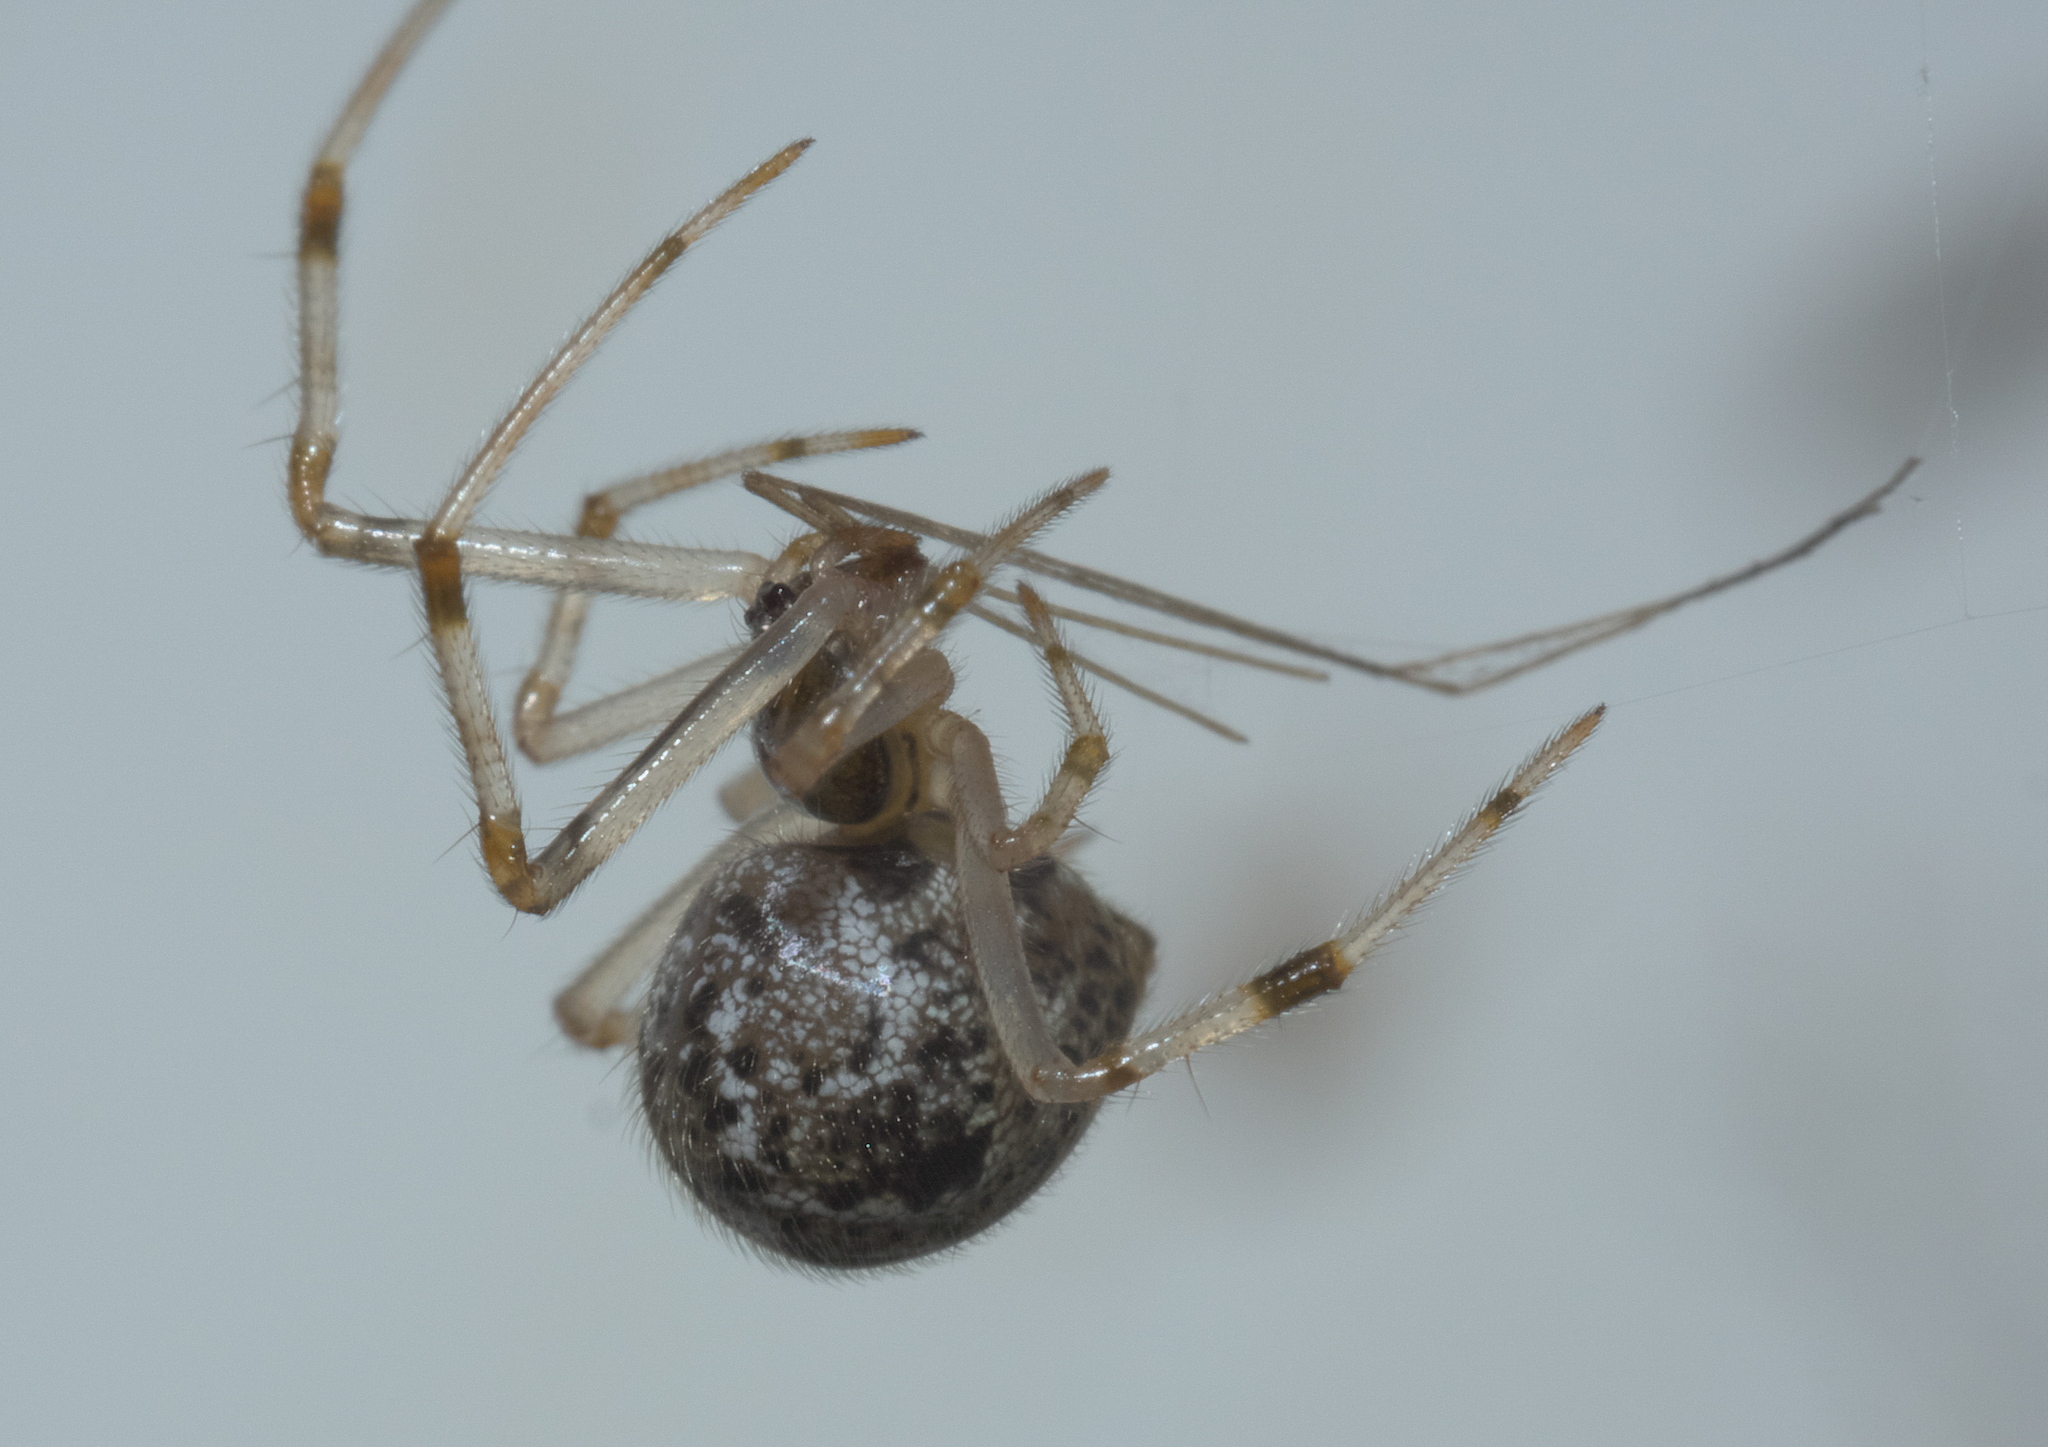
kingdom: Animalia
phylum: Arthropoda
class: Arachnida
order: Araneae
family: Theridiidae
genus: Parasteatoda
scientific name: Parasteatoda tepidariorum
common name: Common house spider
